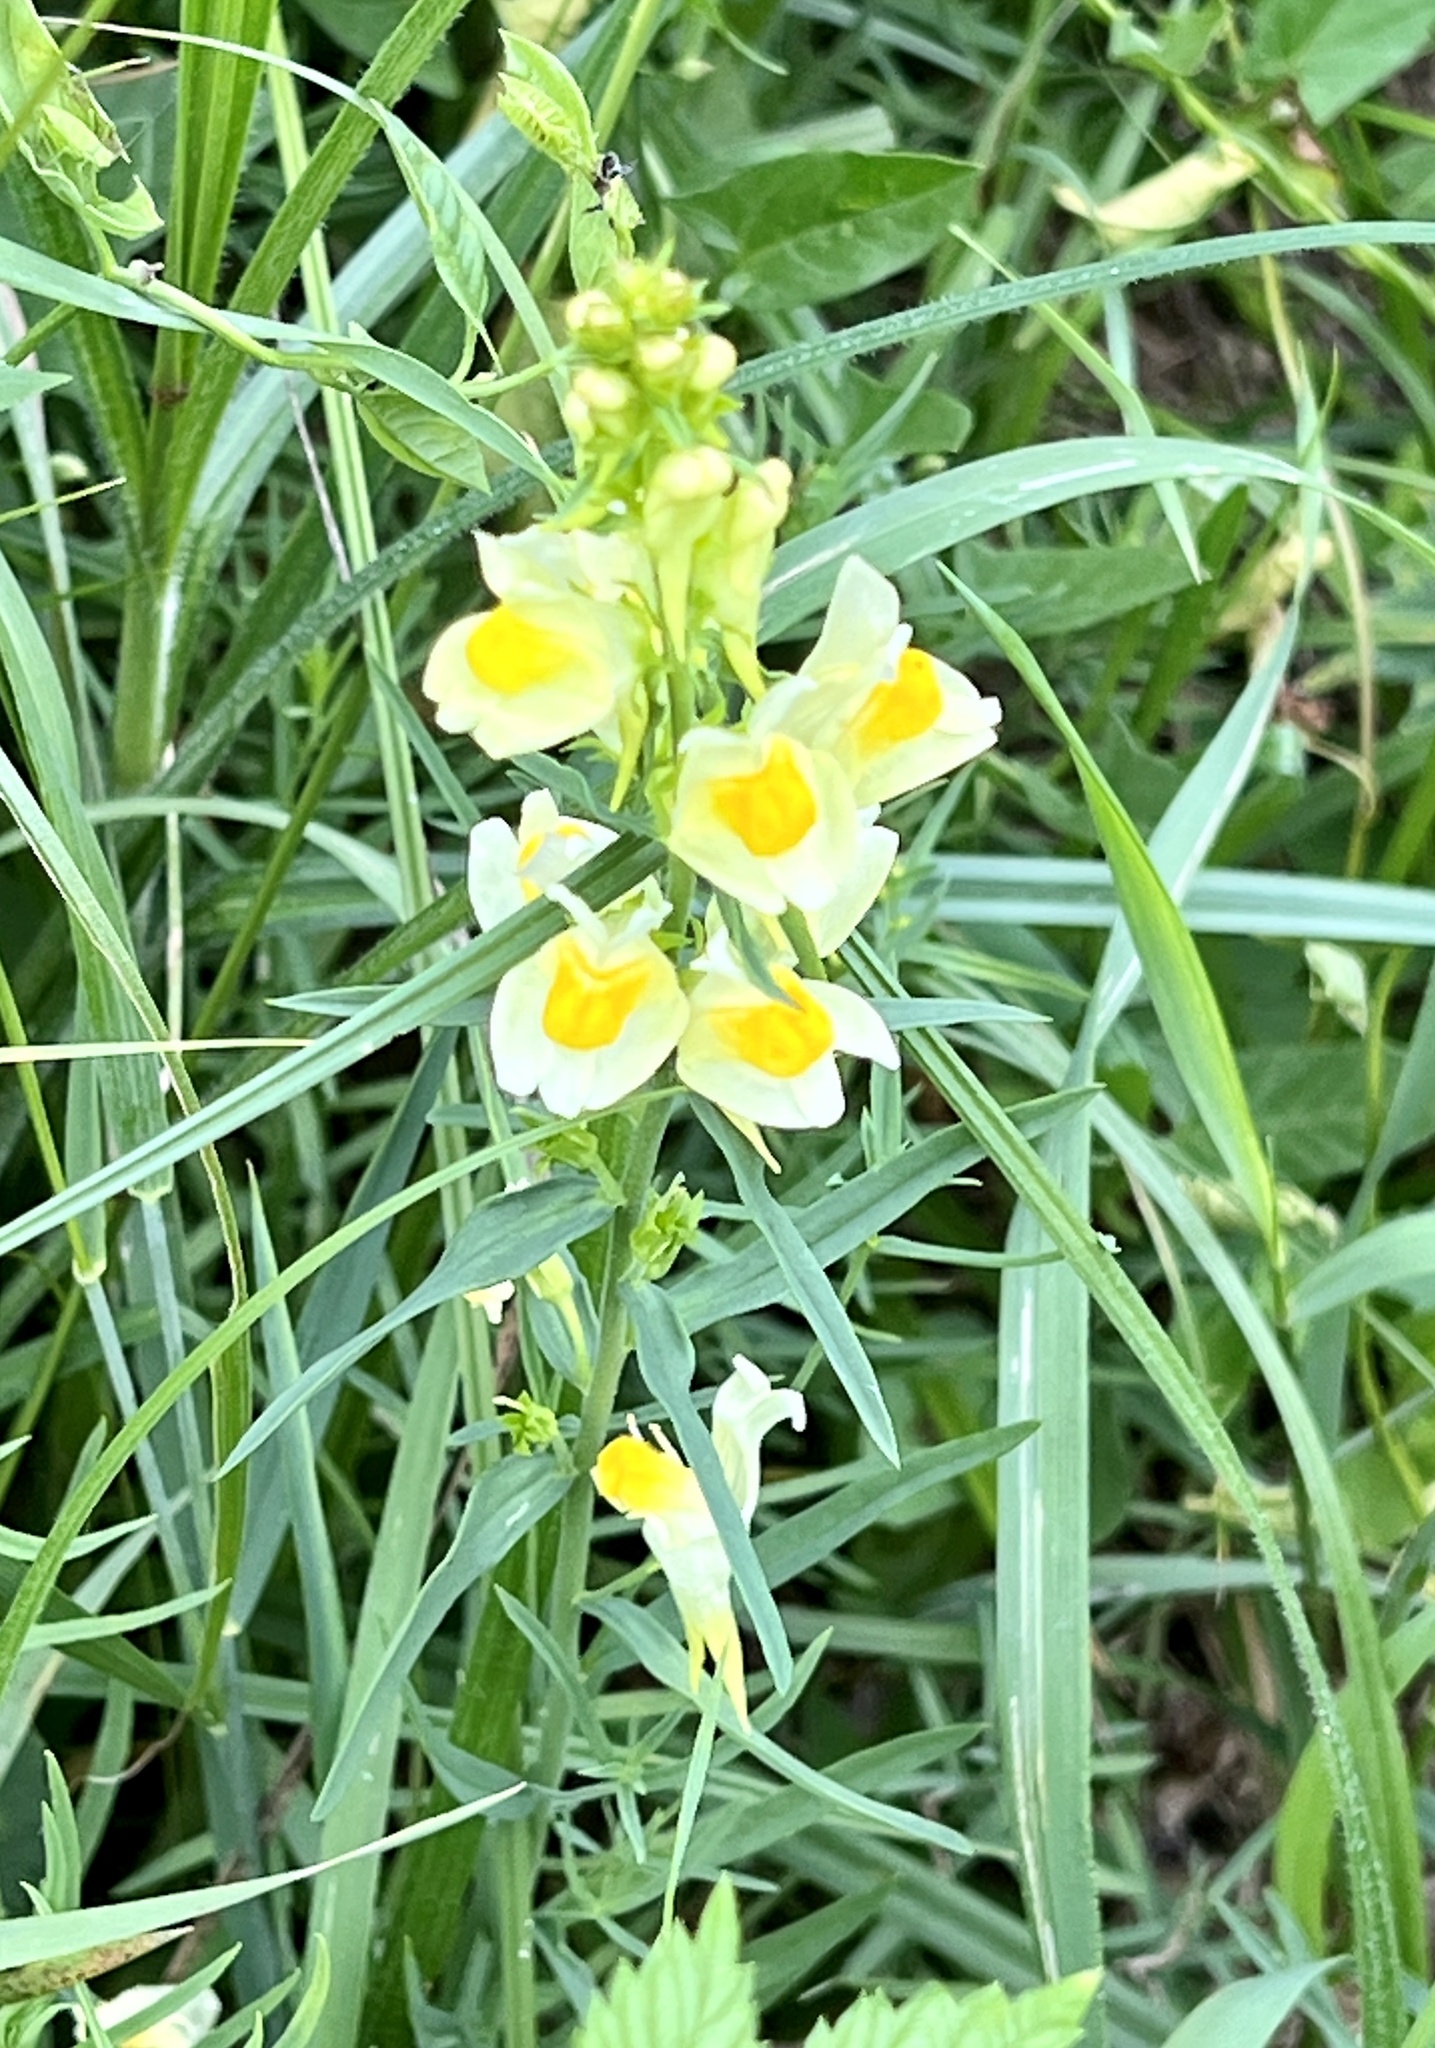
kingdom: Plantae
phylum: Tracheophyta
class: Magnoliopsida
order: Lamiales
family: Plantaginaceae
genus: Linaria
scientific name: Linaria vulgaris
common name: Butter and eggs
